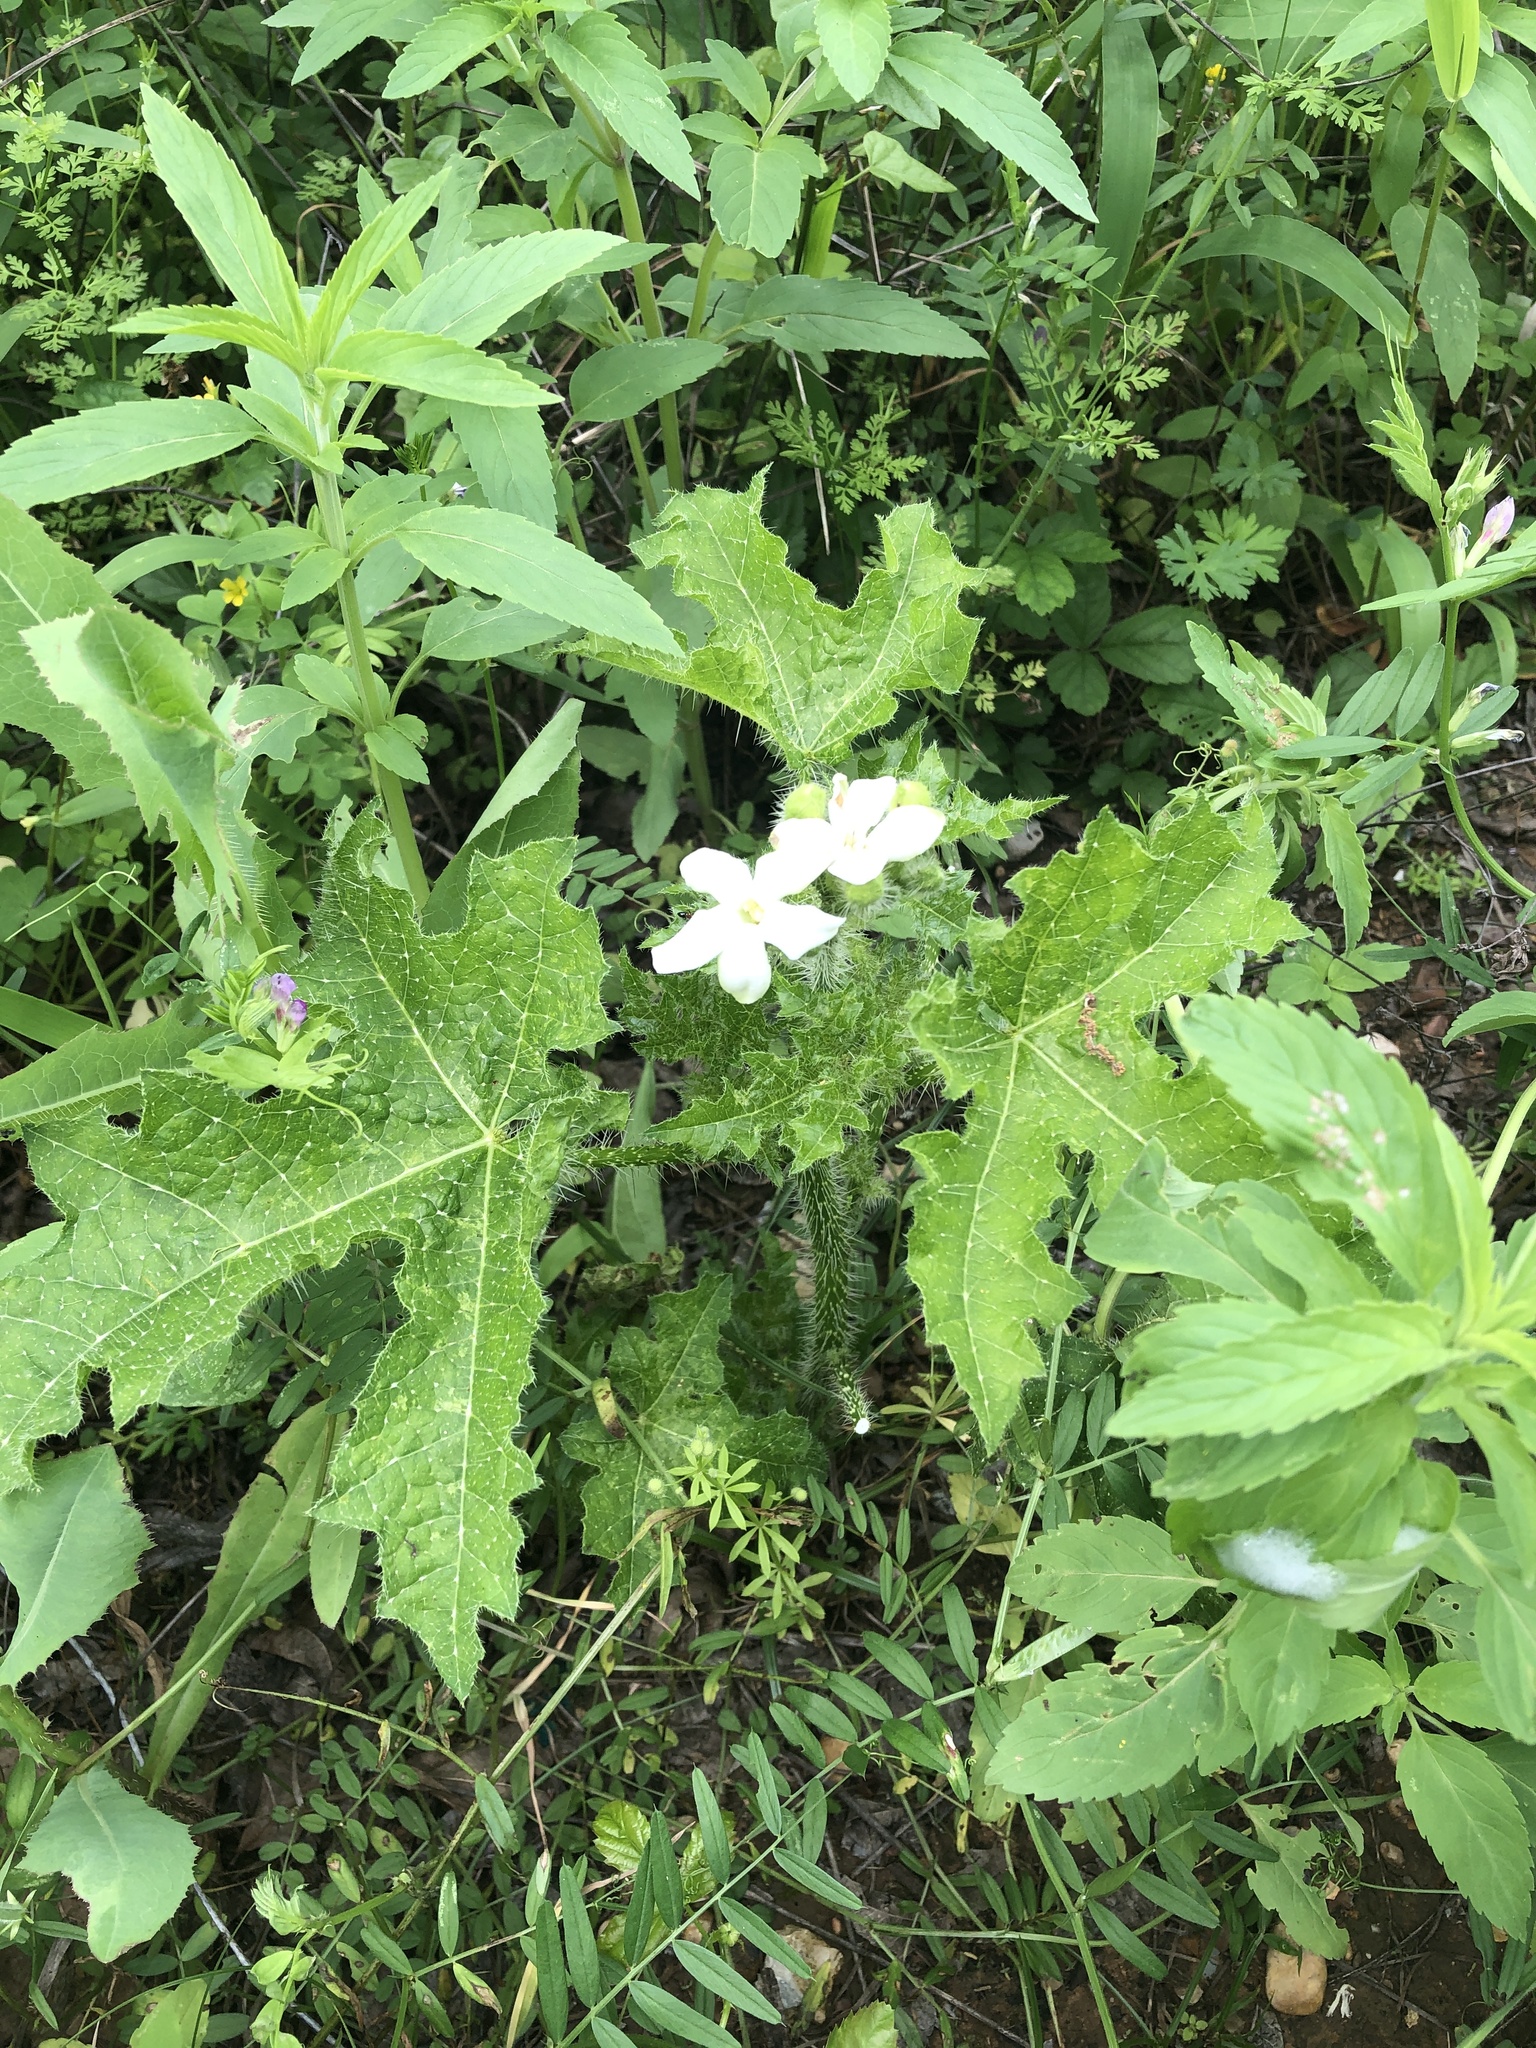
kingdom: Plantae
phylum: Tracheophyta
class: Magnoliopsida
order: Malpighiales
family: Euphorbiaceae
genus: Cnidoscolus
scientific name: Cnidoscolus texanus
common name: Texas bull-nettle
